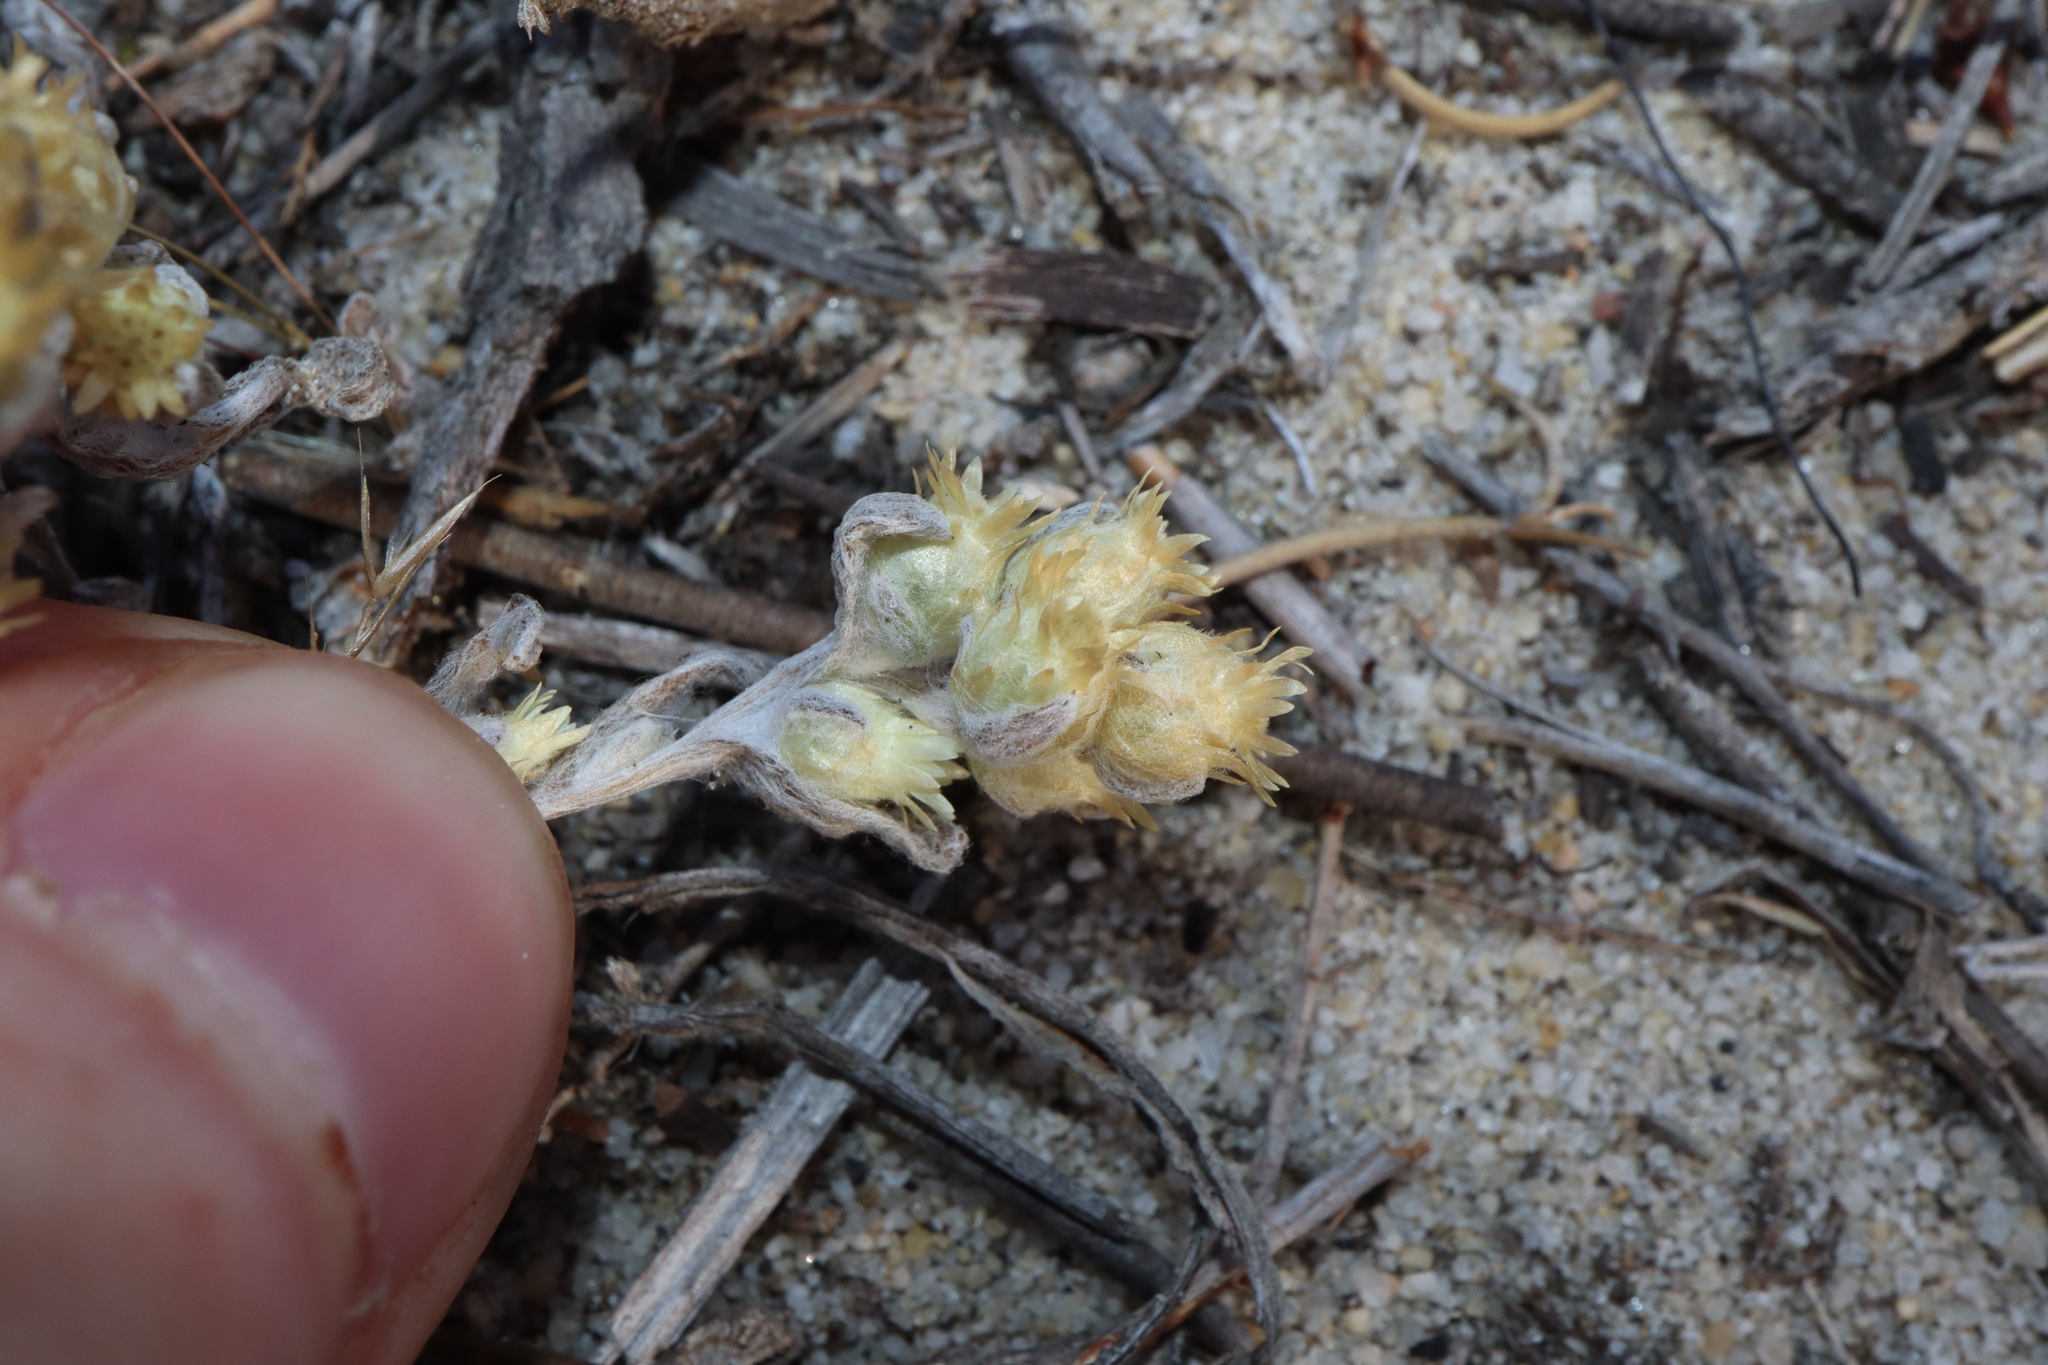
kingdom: Plantae
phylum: Tracheophyta
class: Magnoliopsida
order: Asterales
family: Asteraceae
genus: Pterochaeta
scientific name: Pterochaeta paniculata
